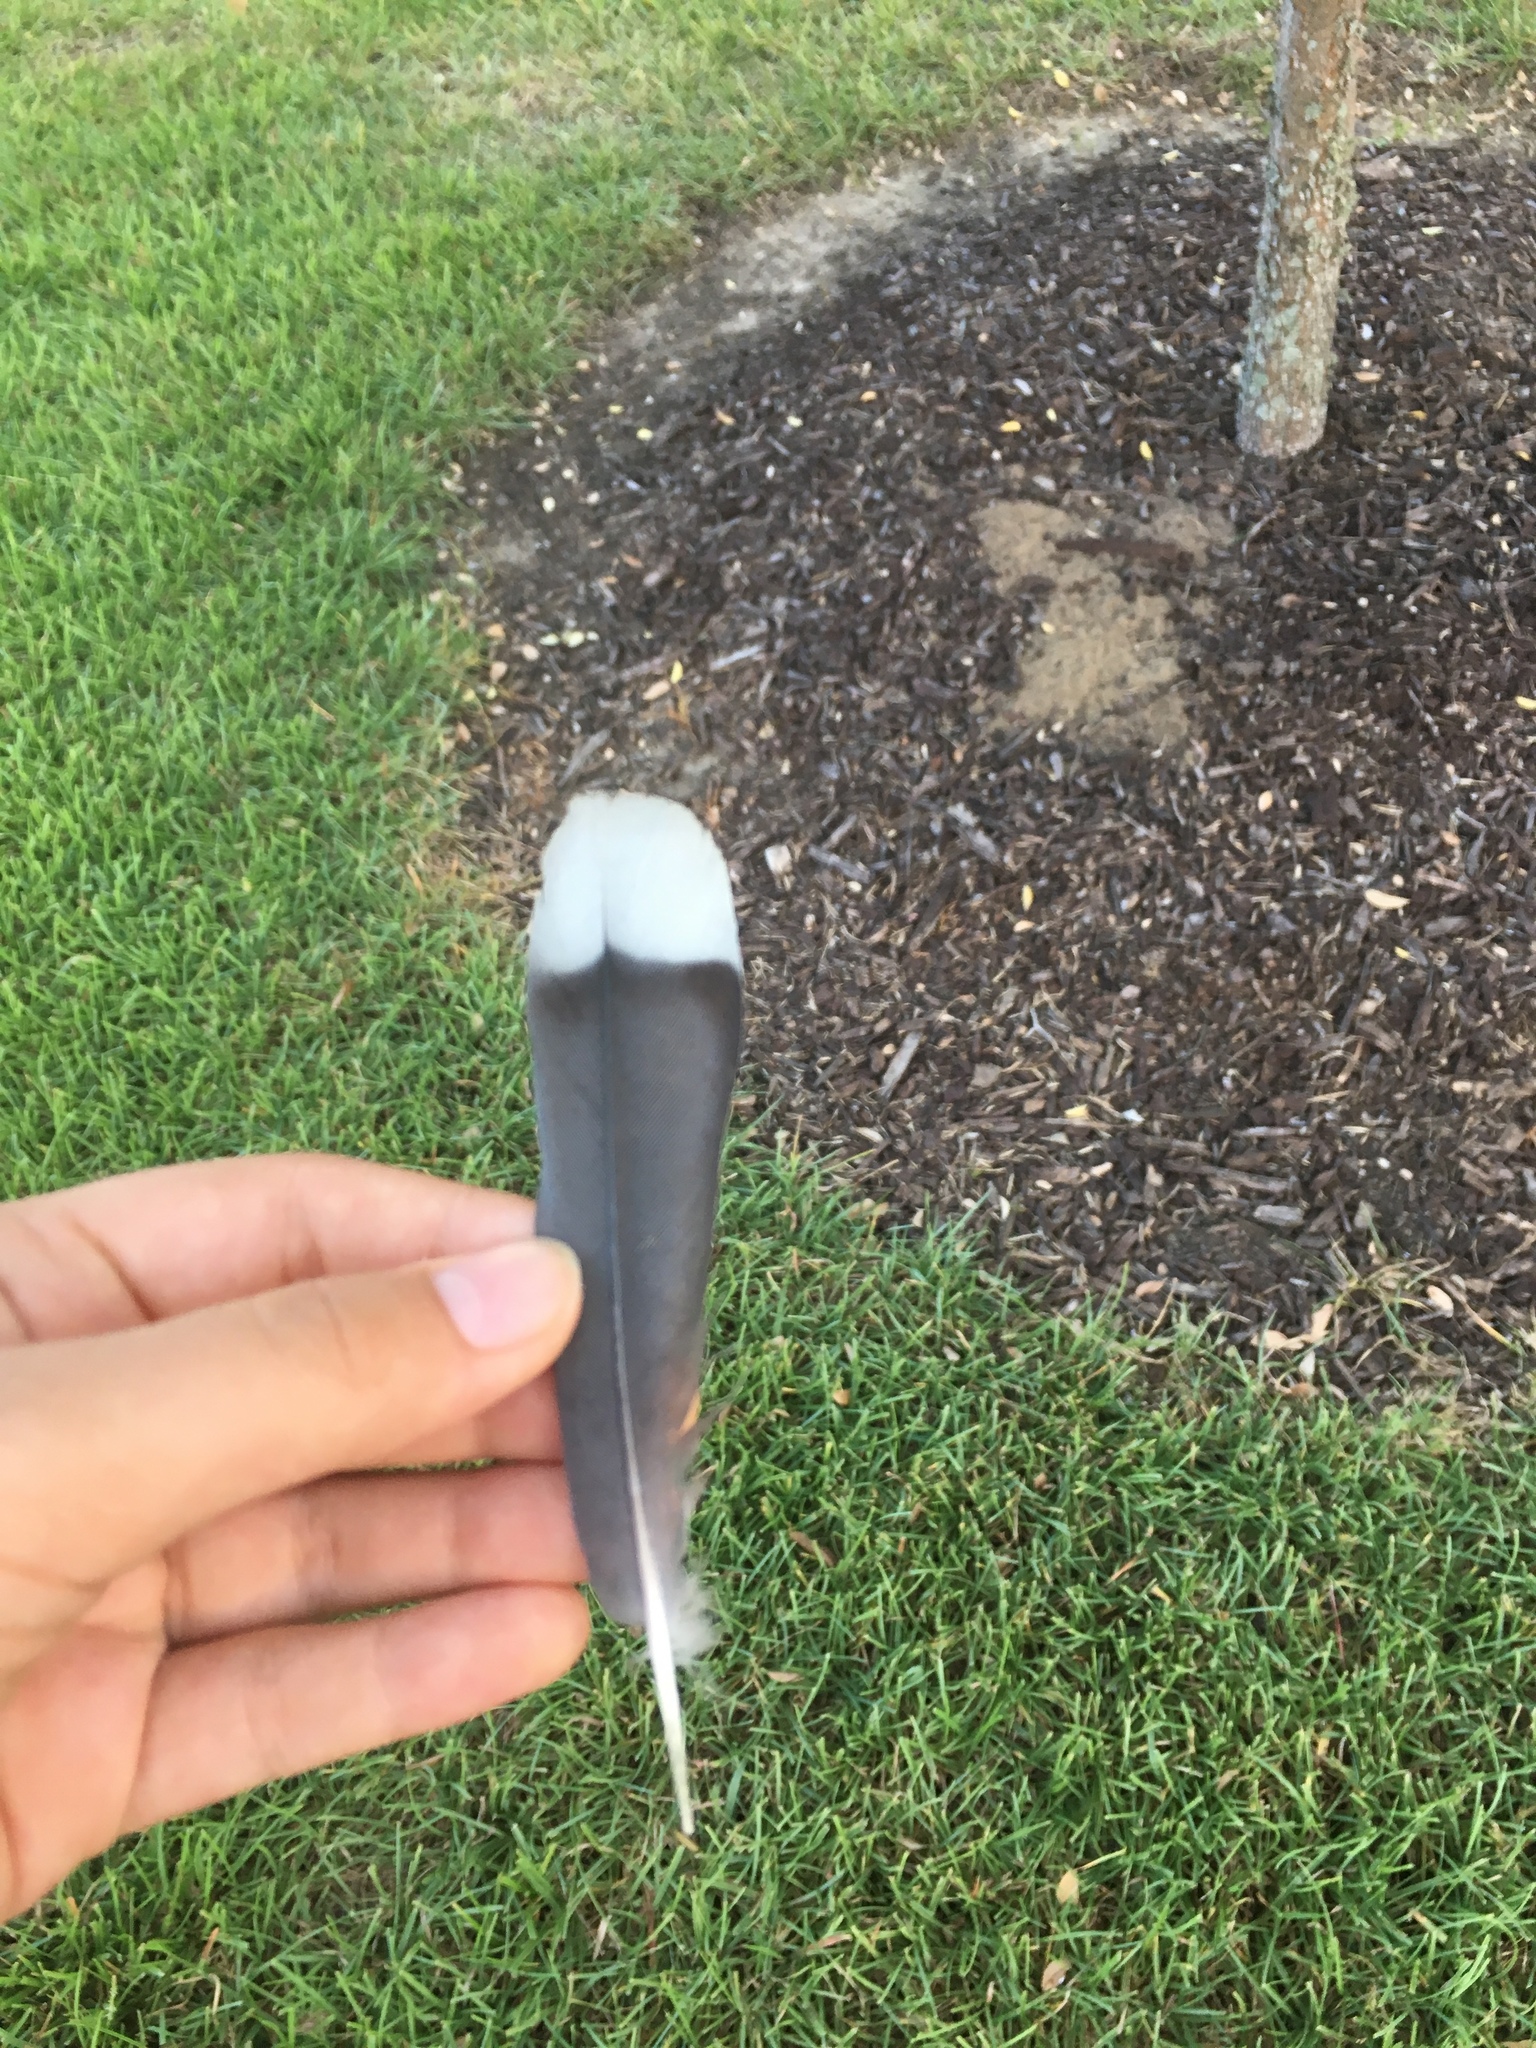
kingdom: Animalia
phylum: Chordata
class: Aves
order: Columbiformes
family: Columbidae
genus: Zenaida
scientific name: Zenaida asiatica
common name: White-winged dove
